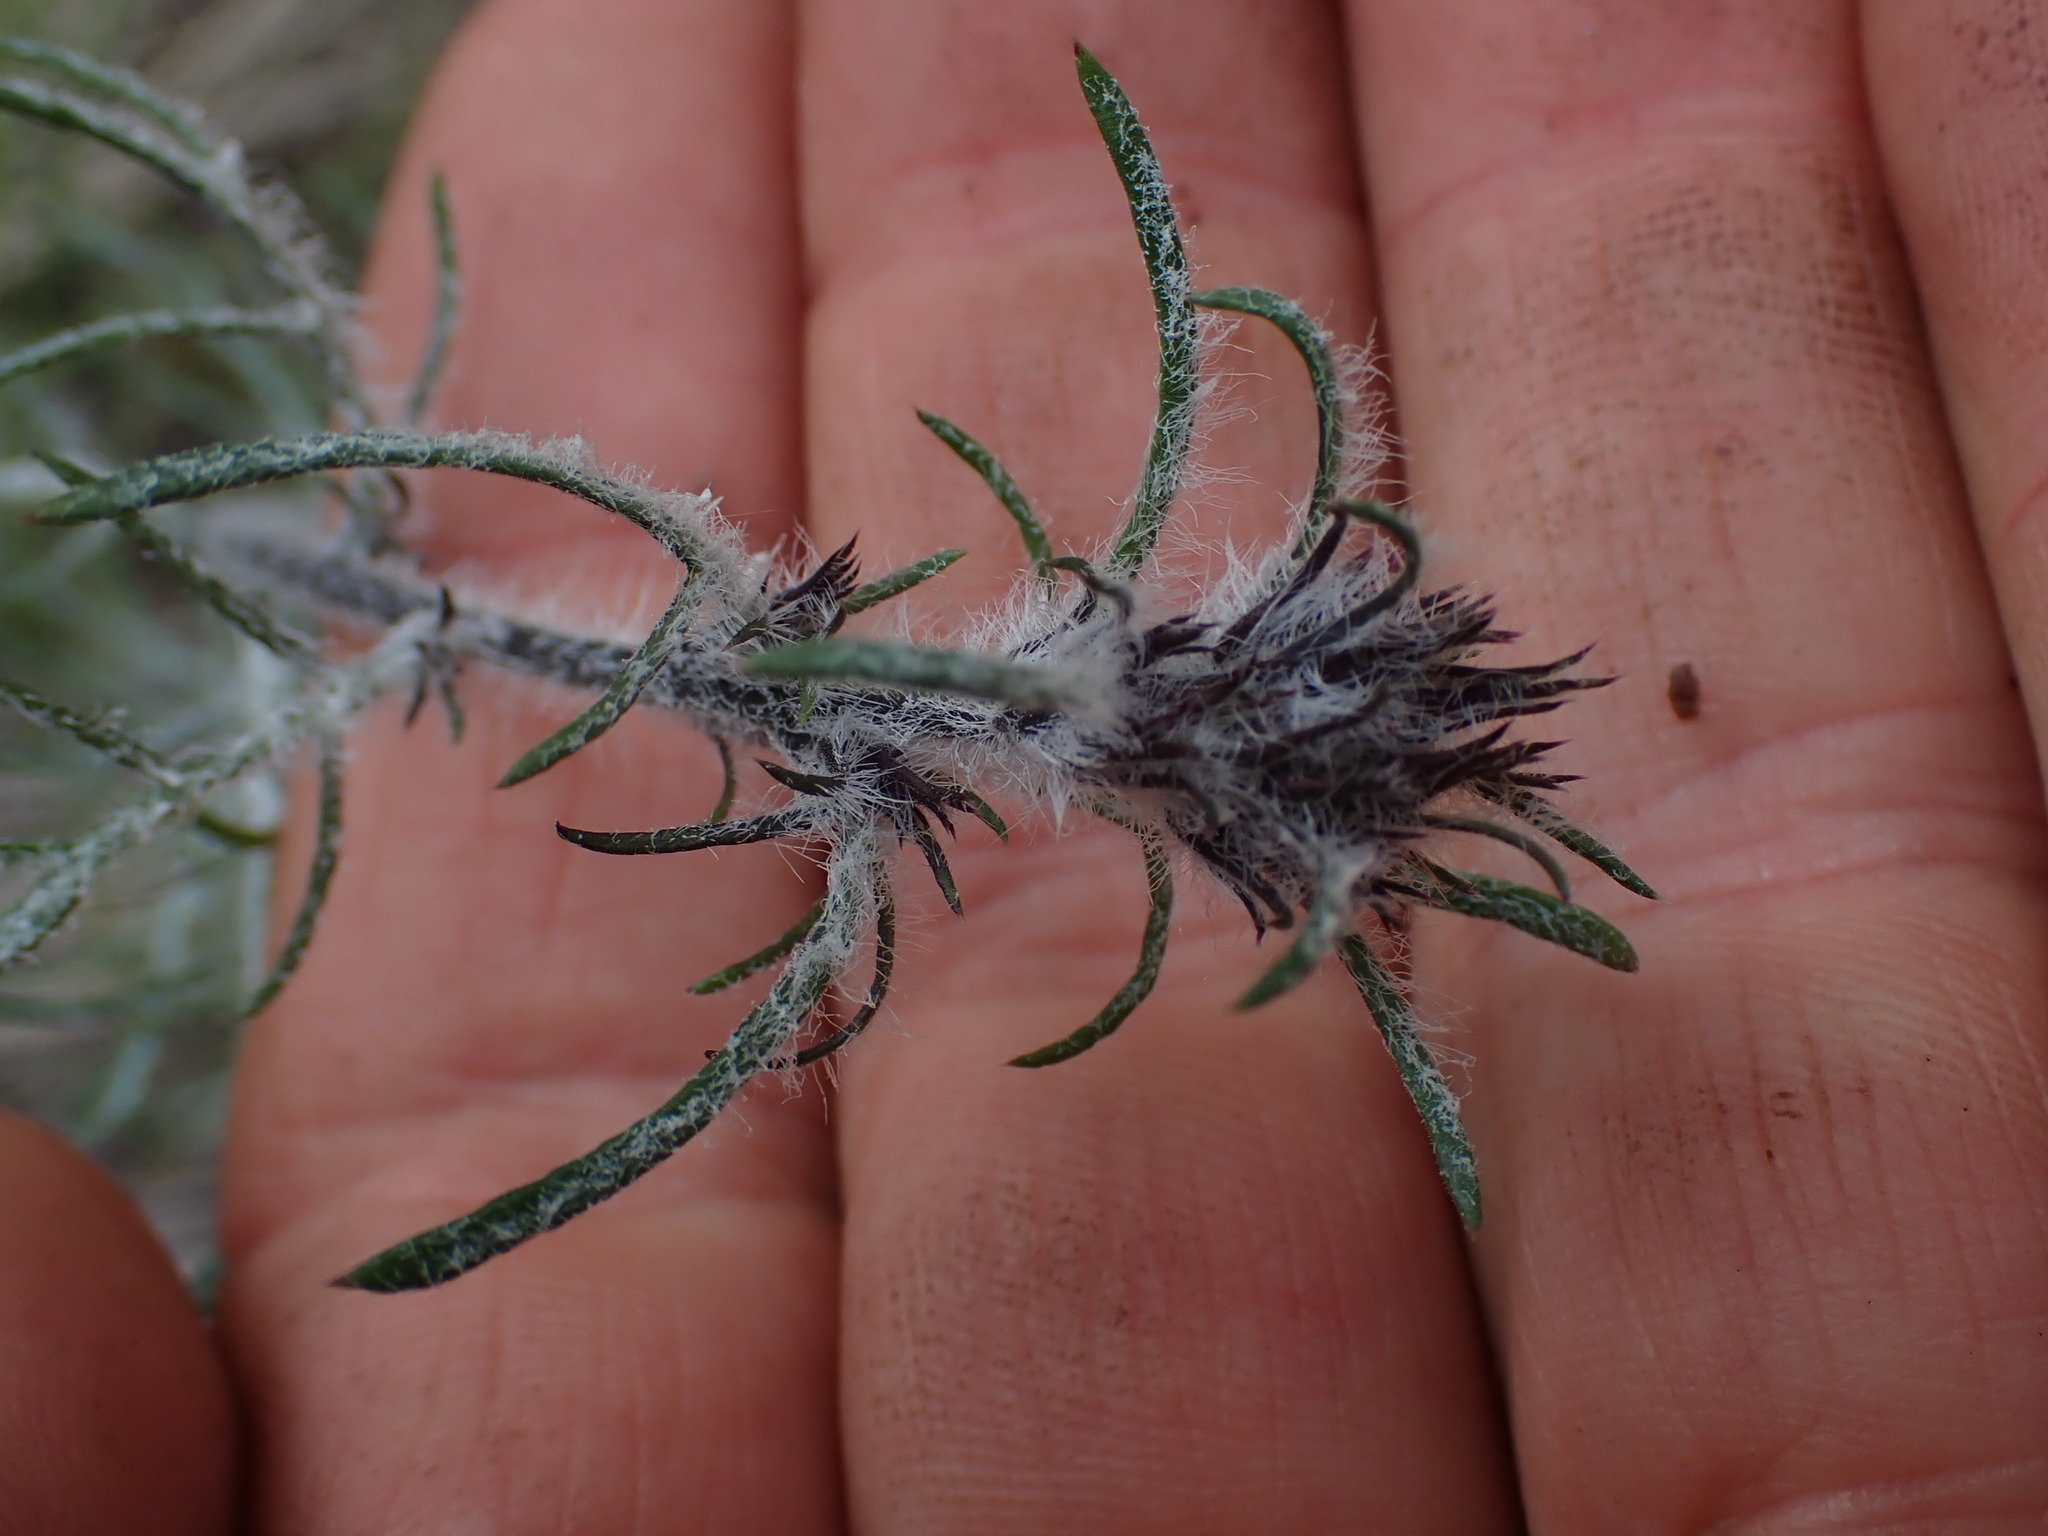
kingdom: Plantae
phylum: Tracheophyta
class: Magnoliopsida
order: Ericales
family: Polemoniaceae
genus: Ipomopsis
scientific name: Ipomopsis aggregata
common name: Scarlet gilia
